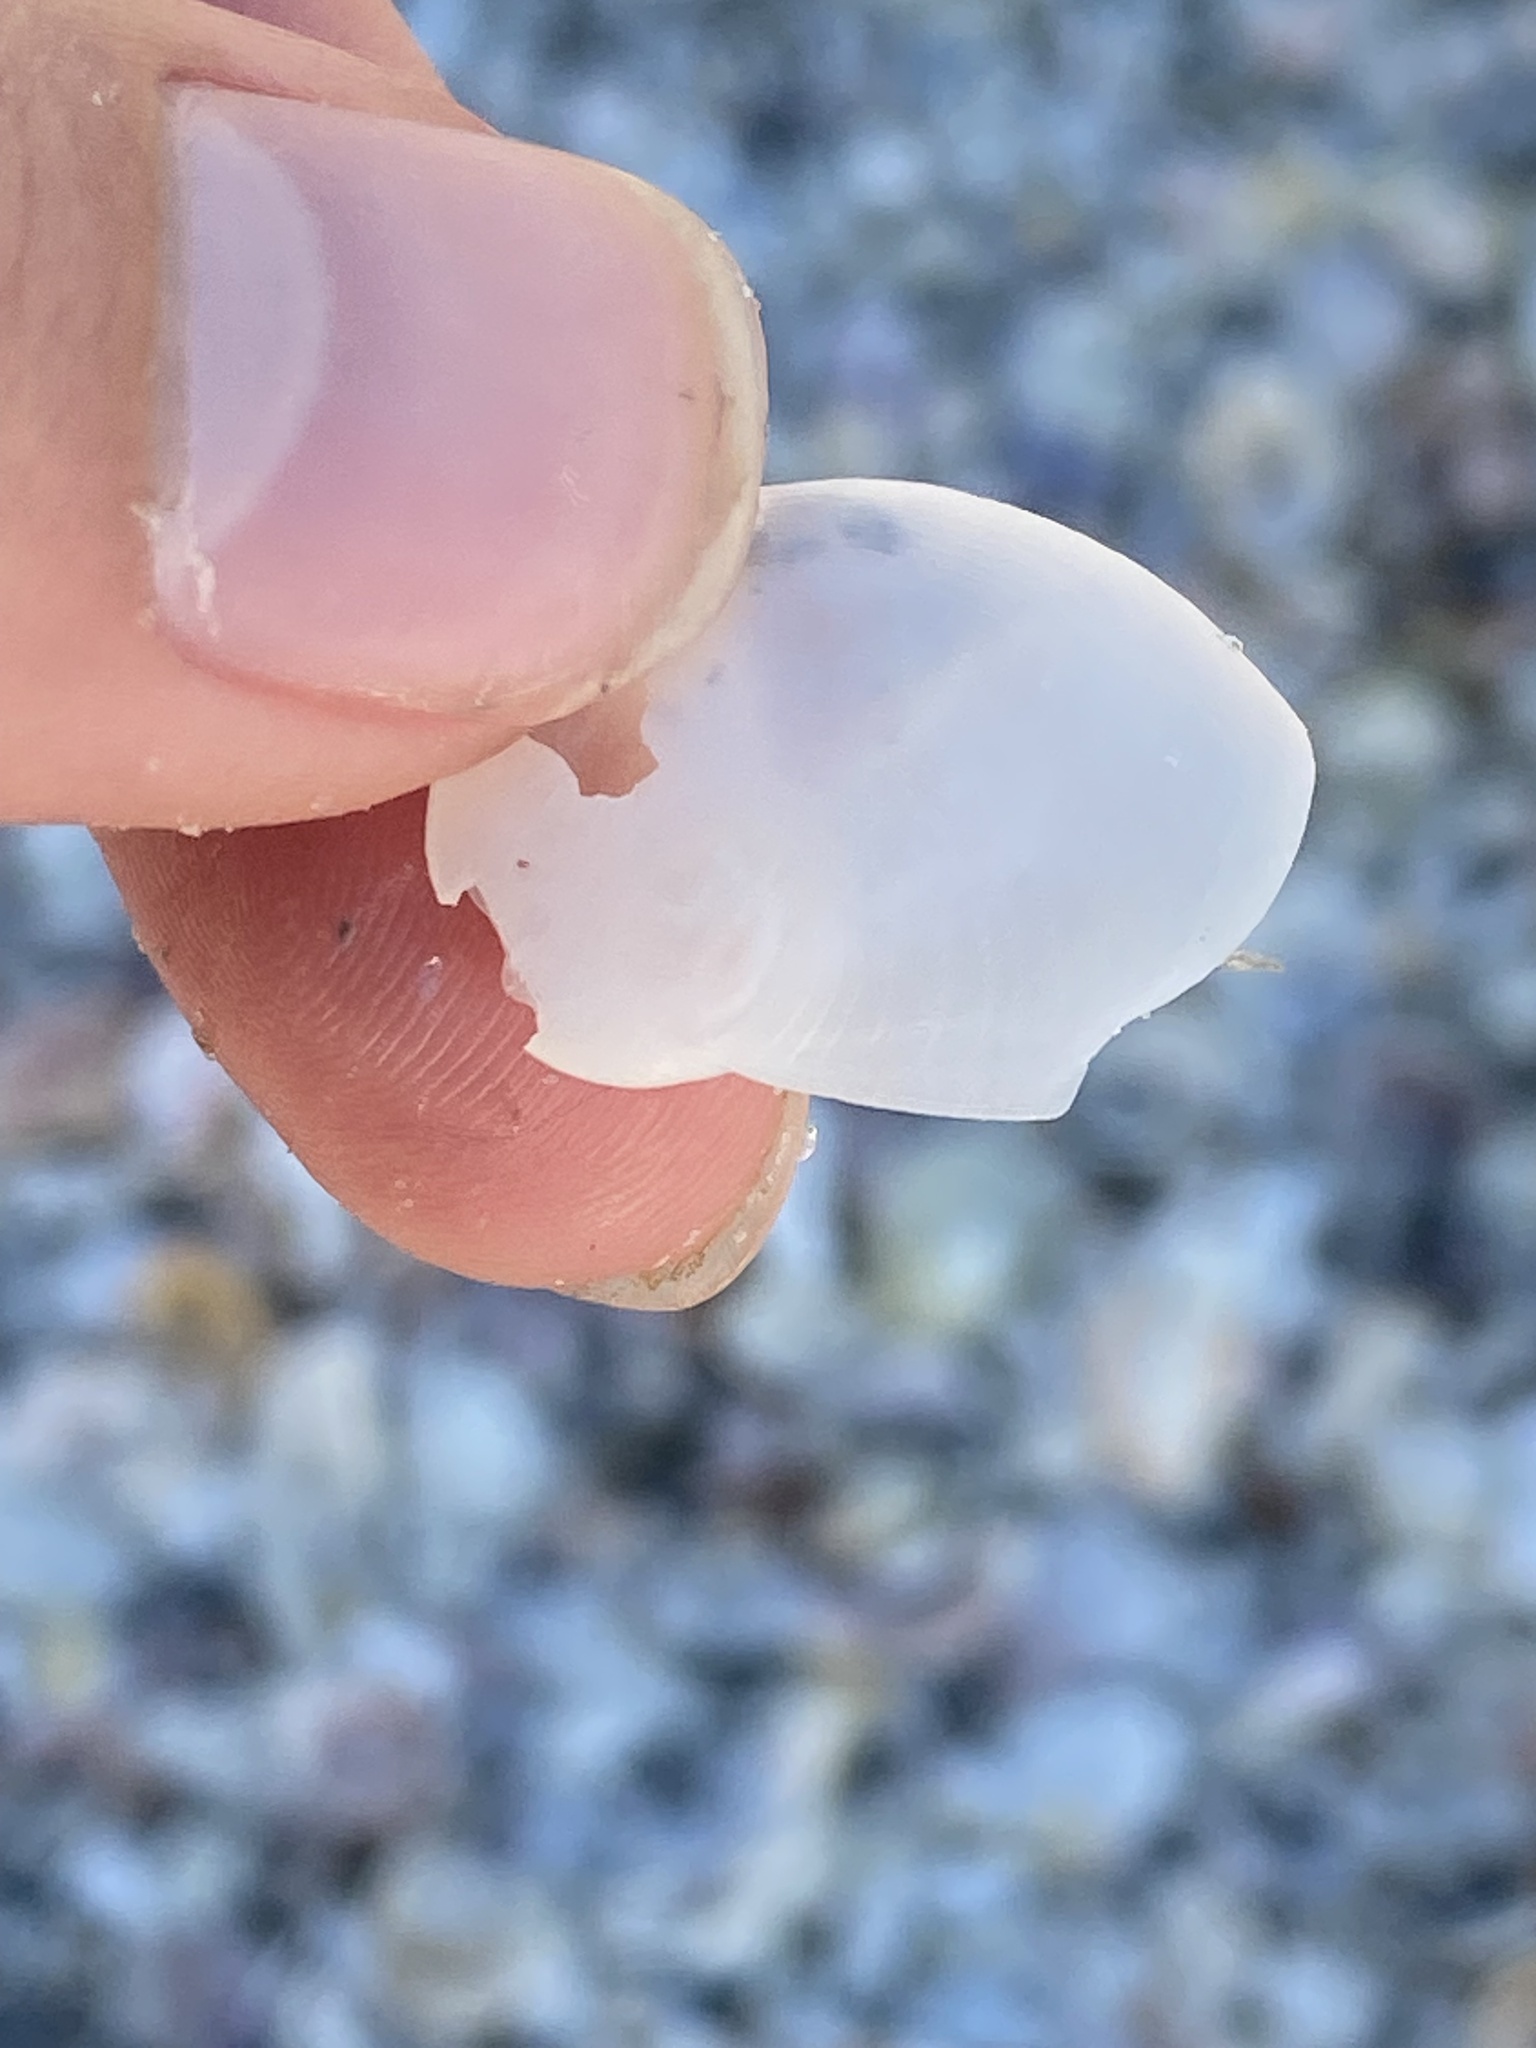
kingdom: Animalia
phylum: Mollusca
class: Gastropoda
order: Littorinimorpha
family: Naticidae
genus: Sinum
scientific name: Sinum perspectivum
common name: White baby ear
